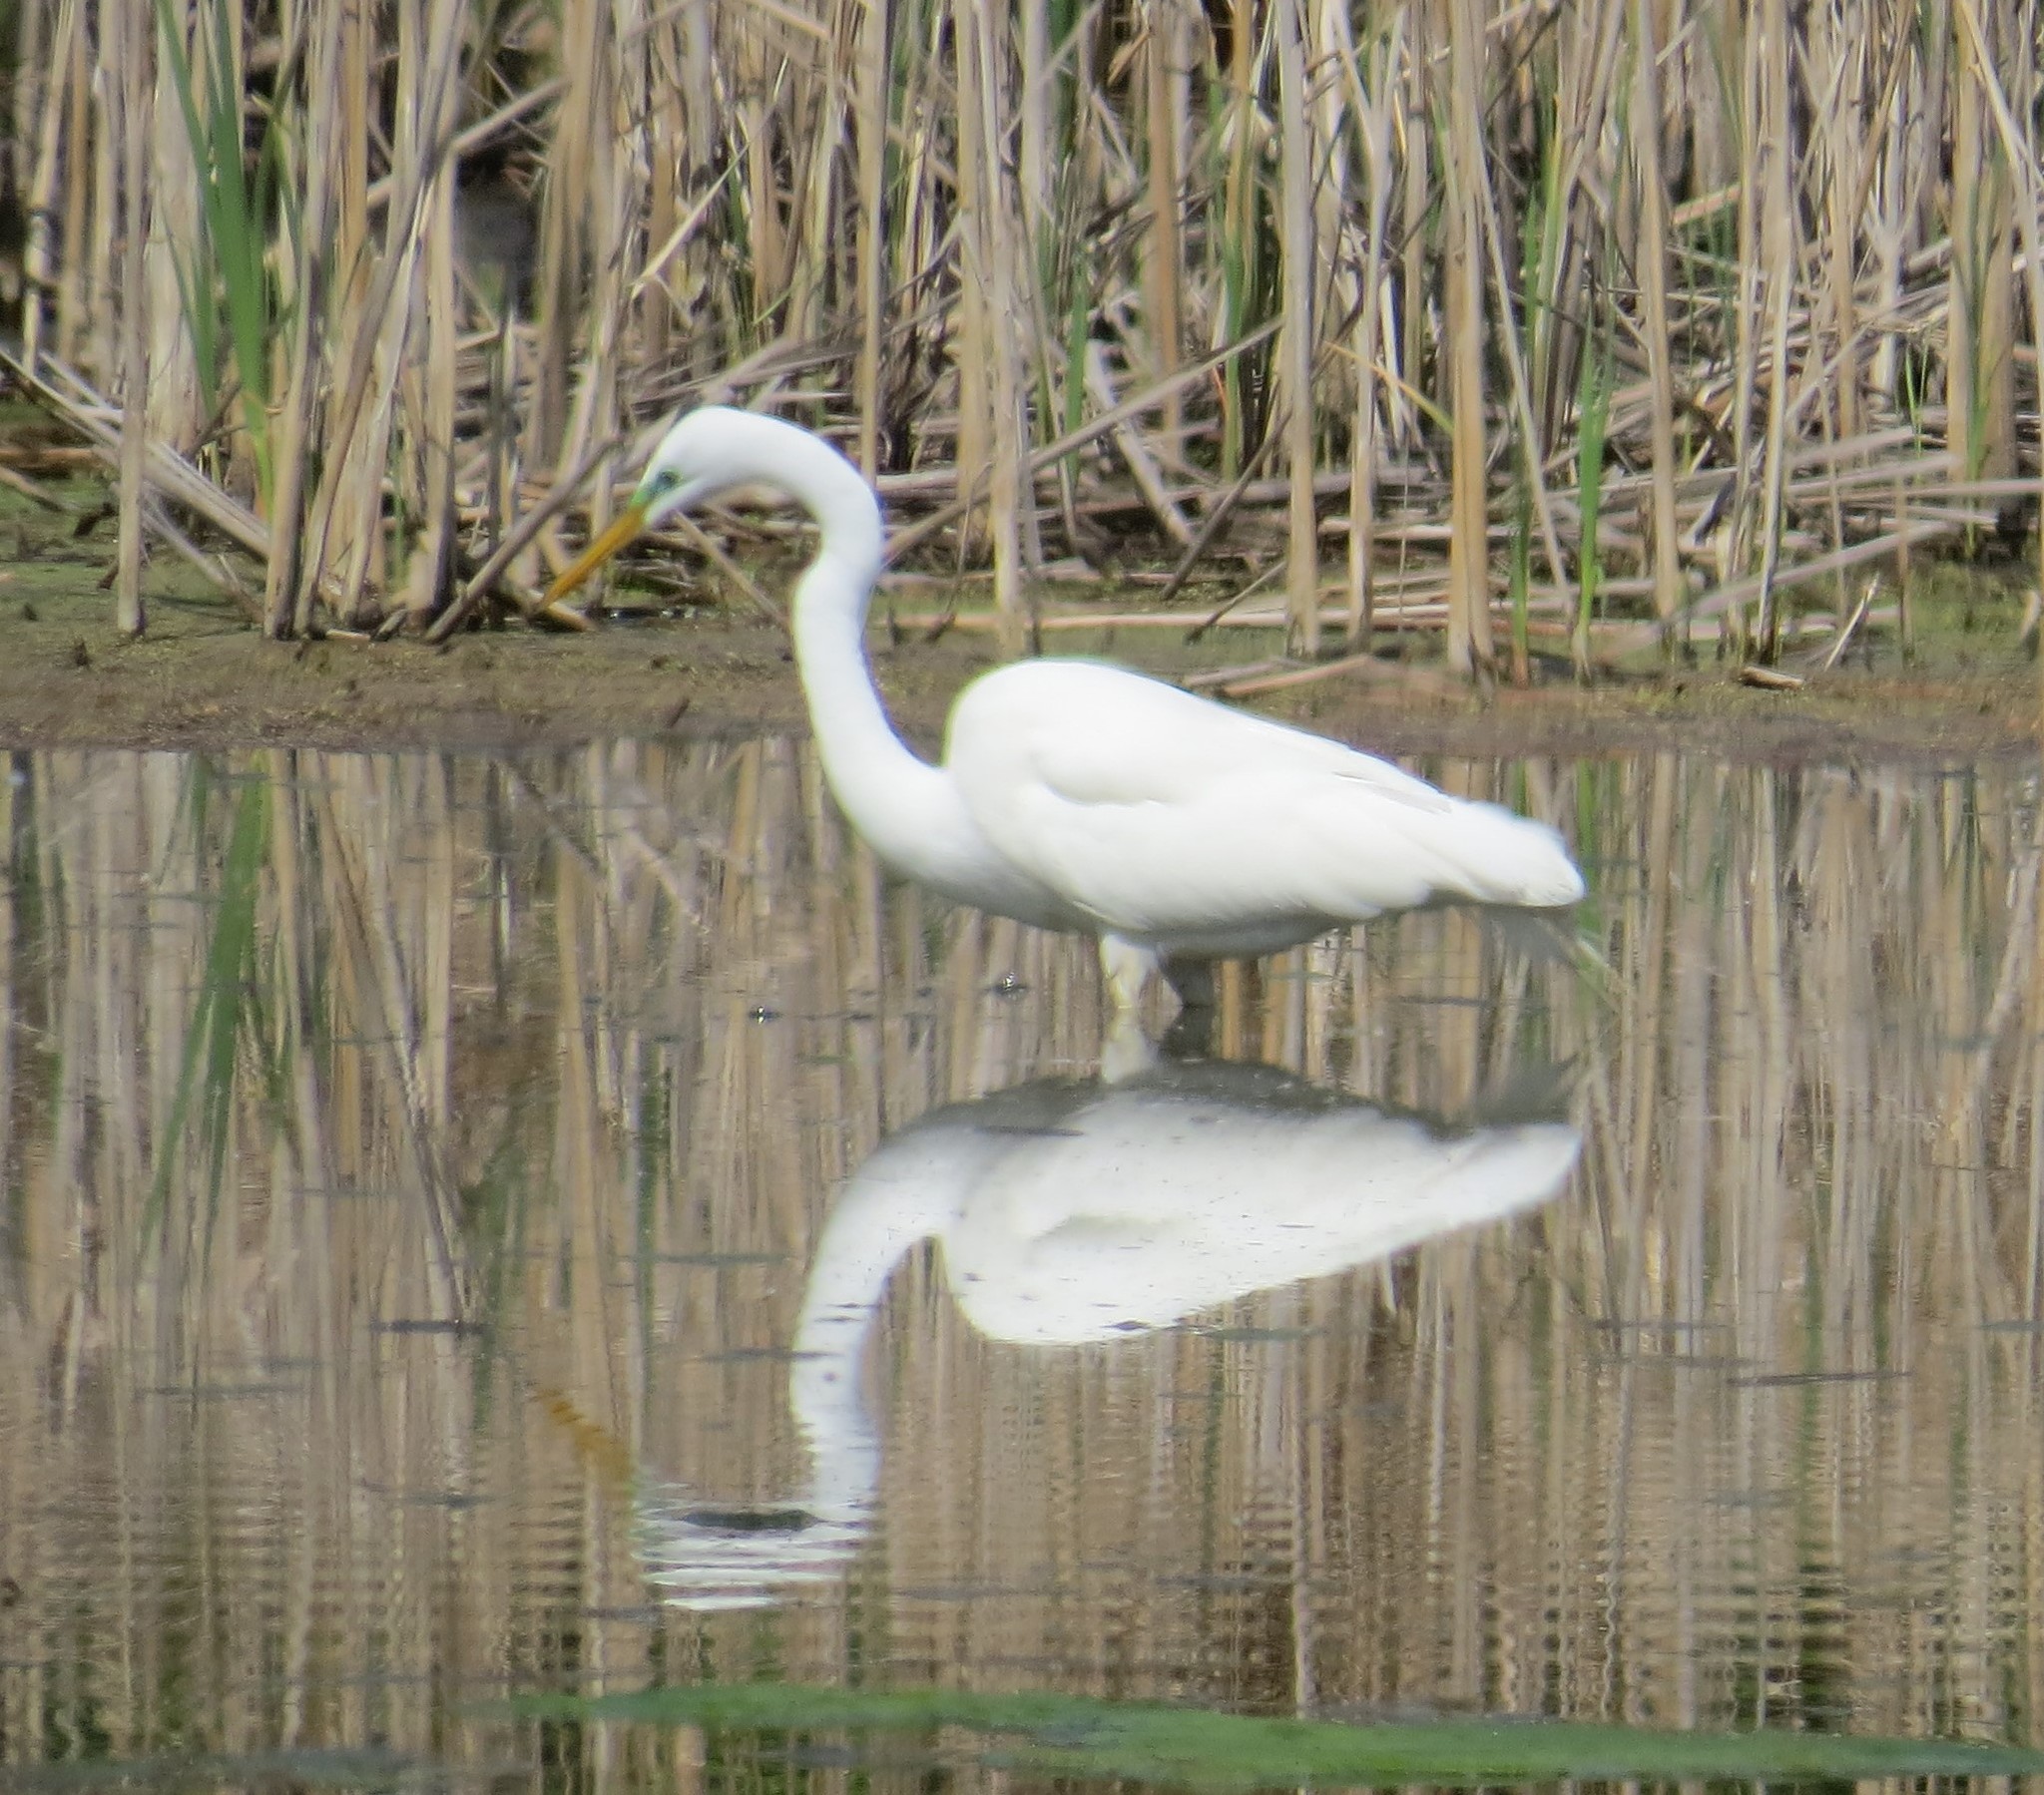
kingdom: Animalia
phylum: Chordata
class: Aves
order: Pelecaniformes
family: Ardeidae
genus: Ardea
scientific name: Ardea alba
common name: Great egret
